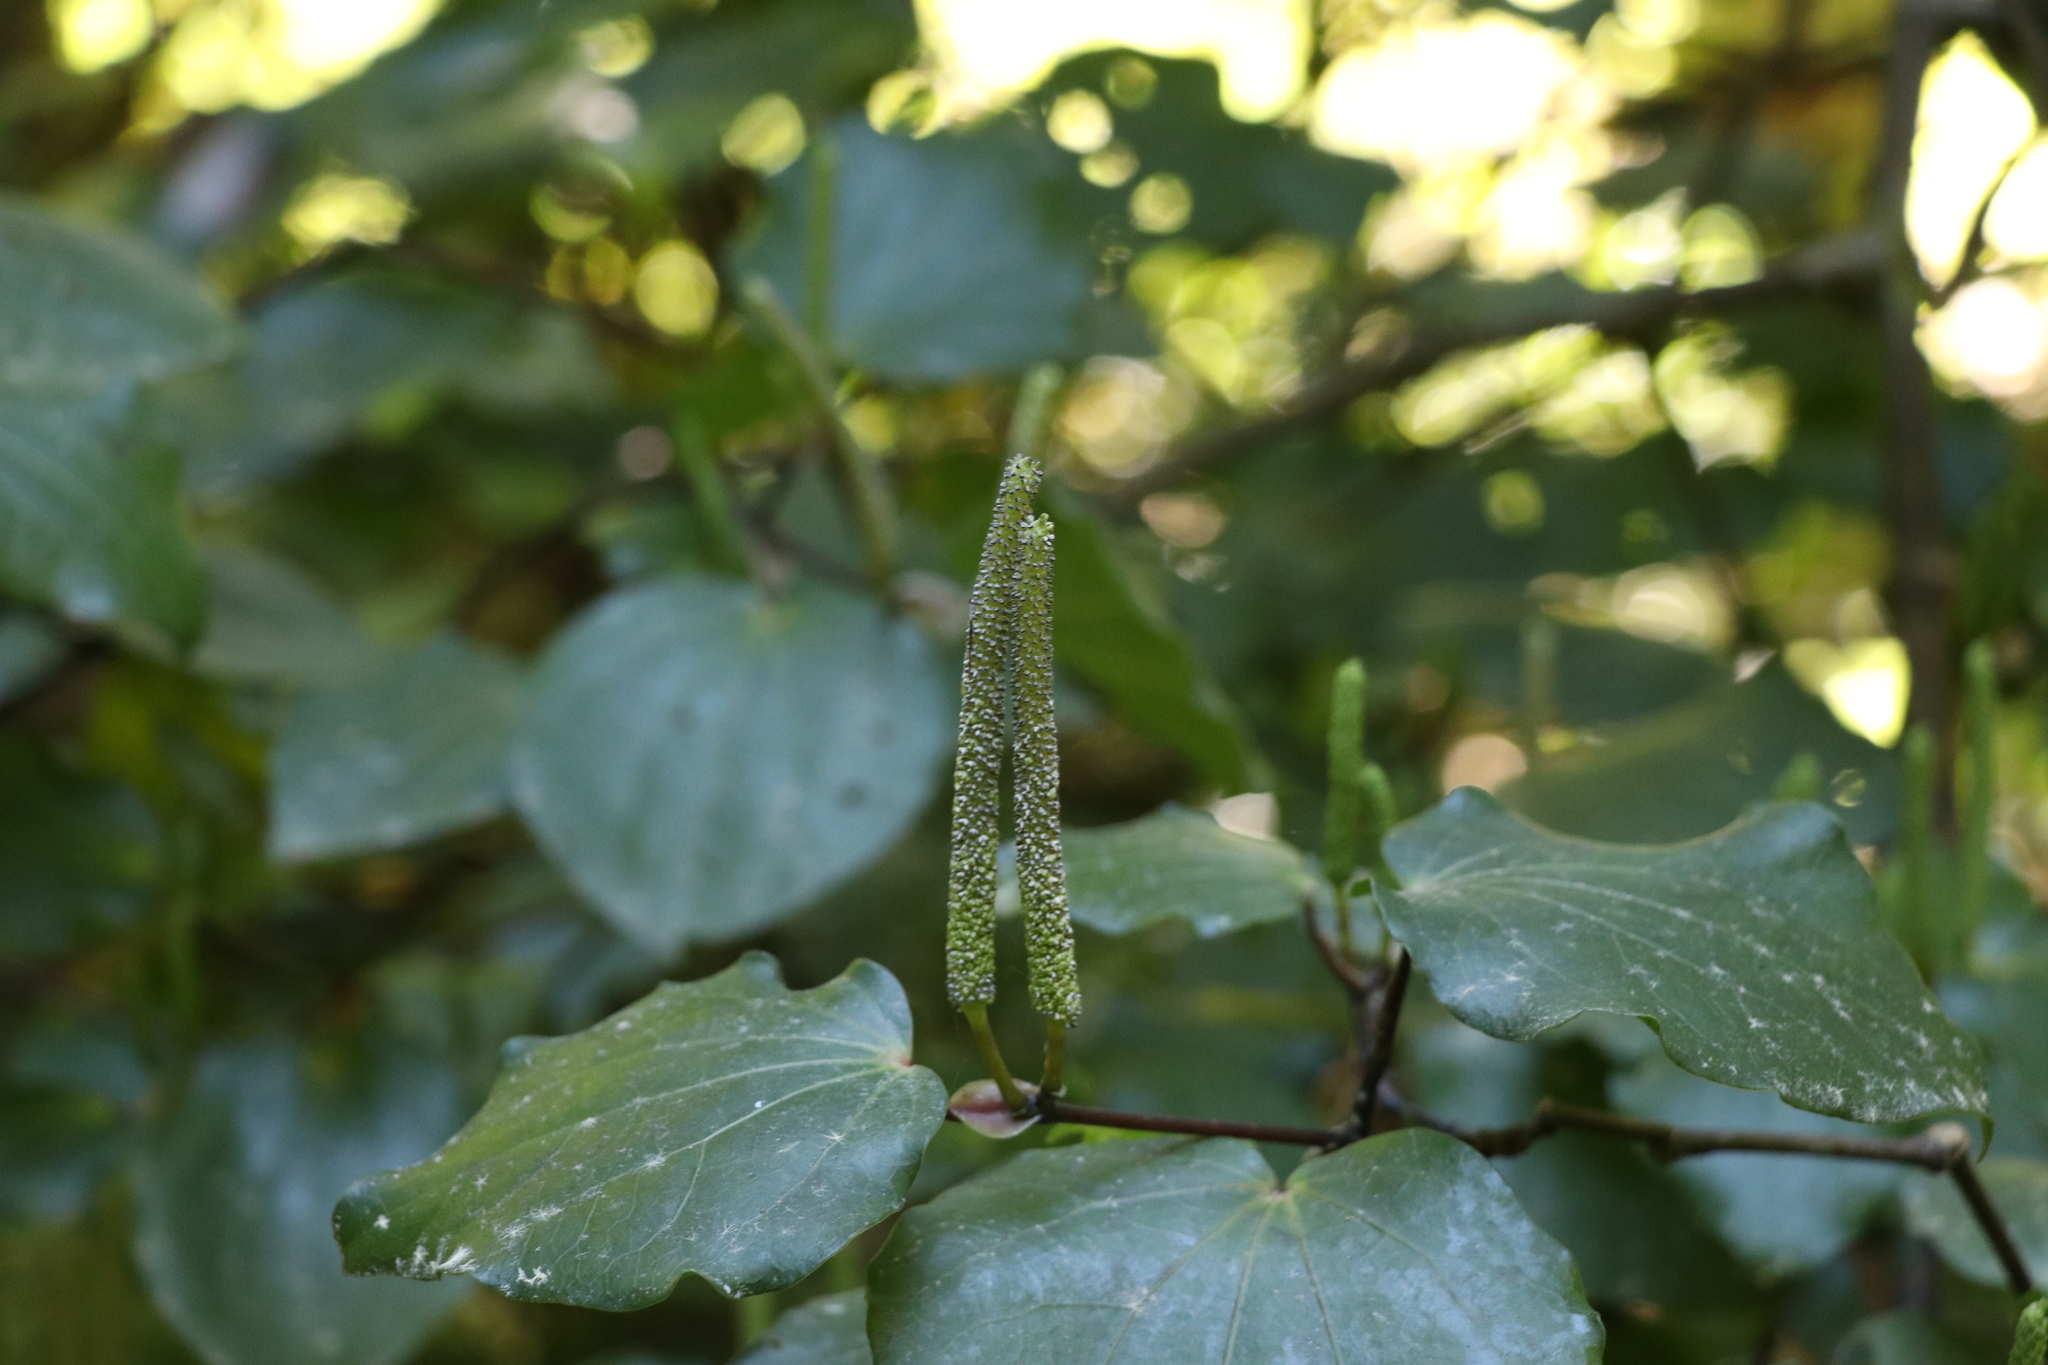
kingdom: Plantae
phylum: Tracheophyta
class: Magnoliopsida
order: Piperales
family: Piperaceae
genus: Macropiper
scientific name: Macropiper excelsum
